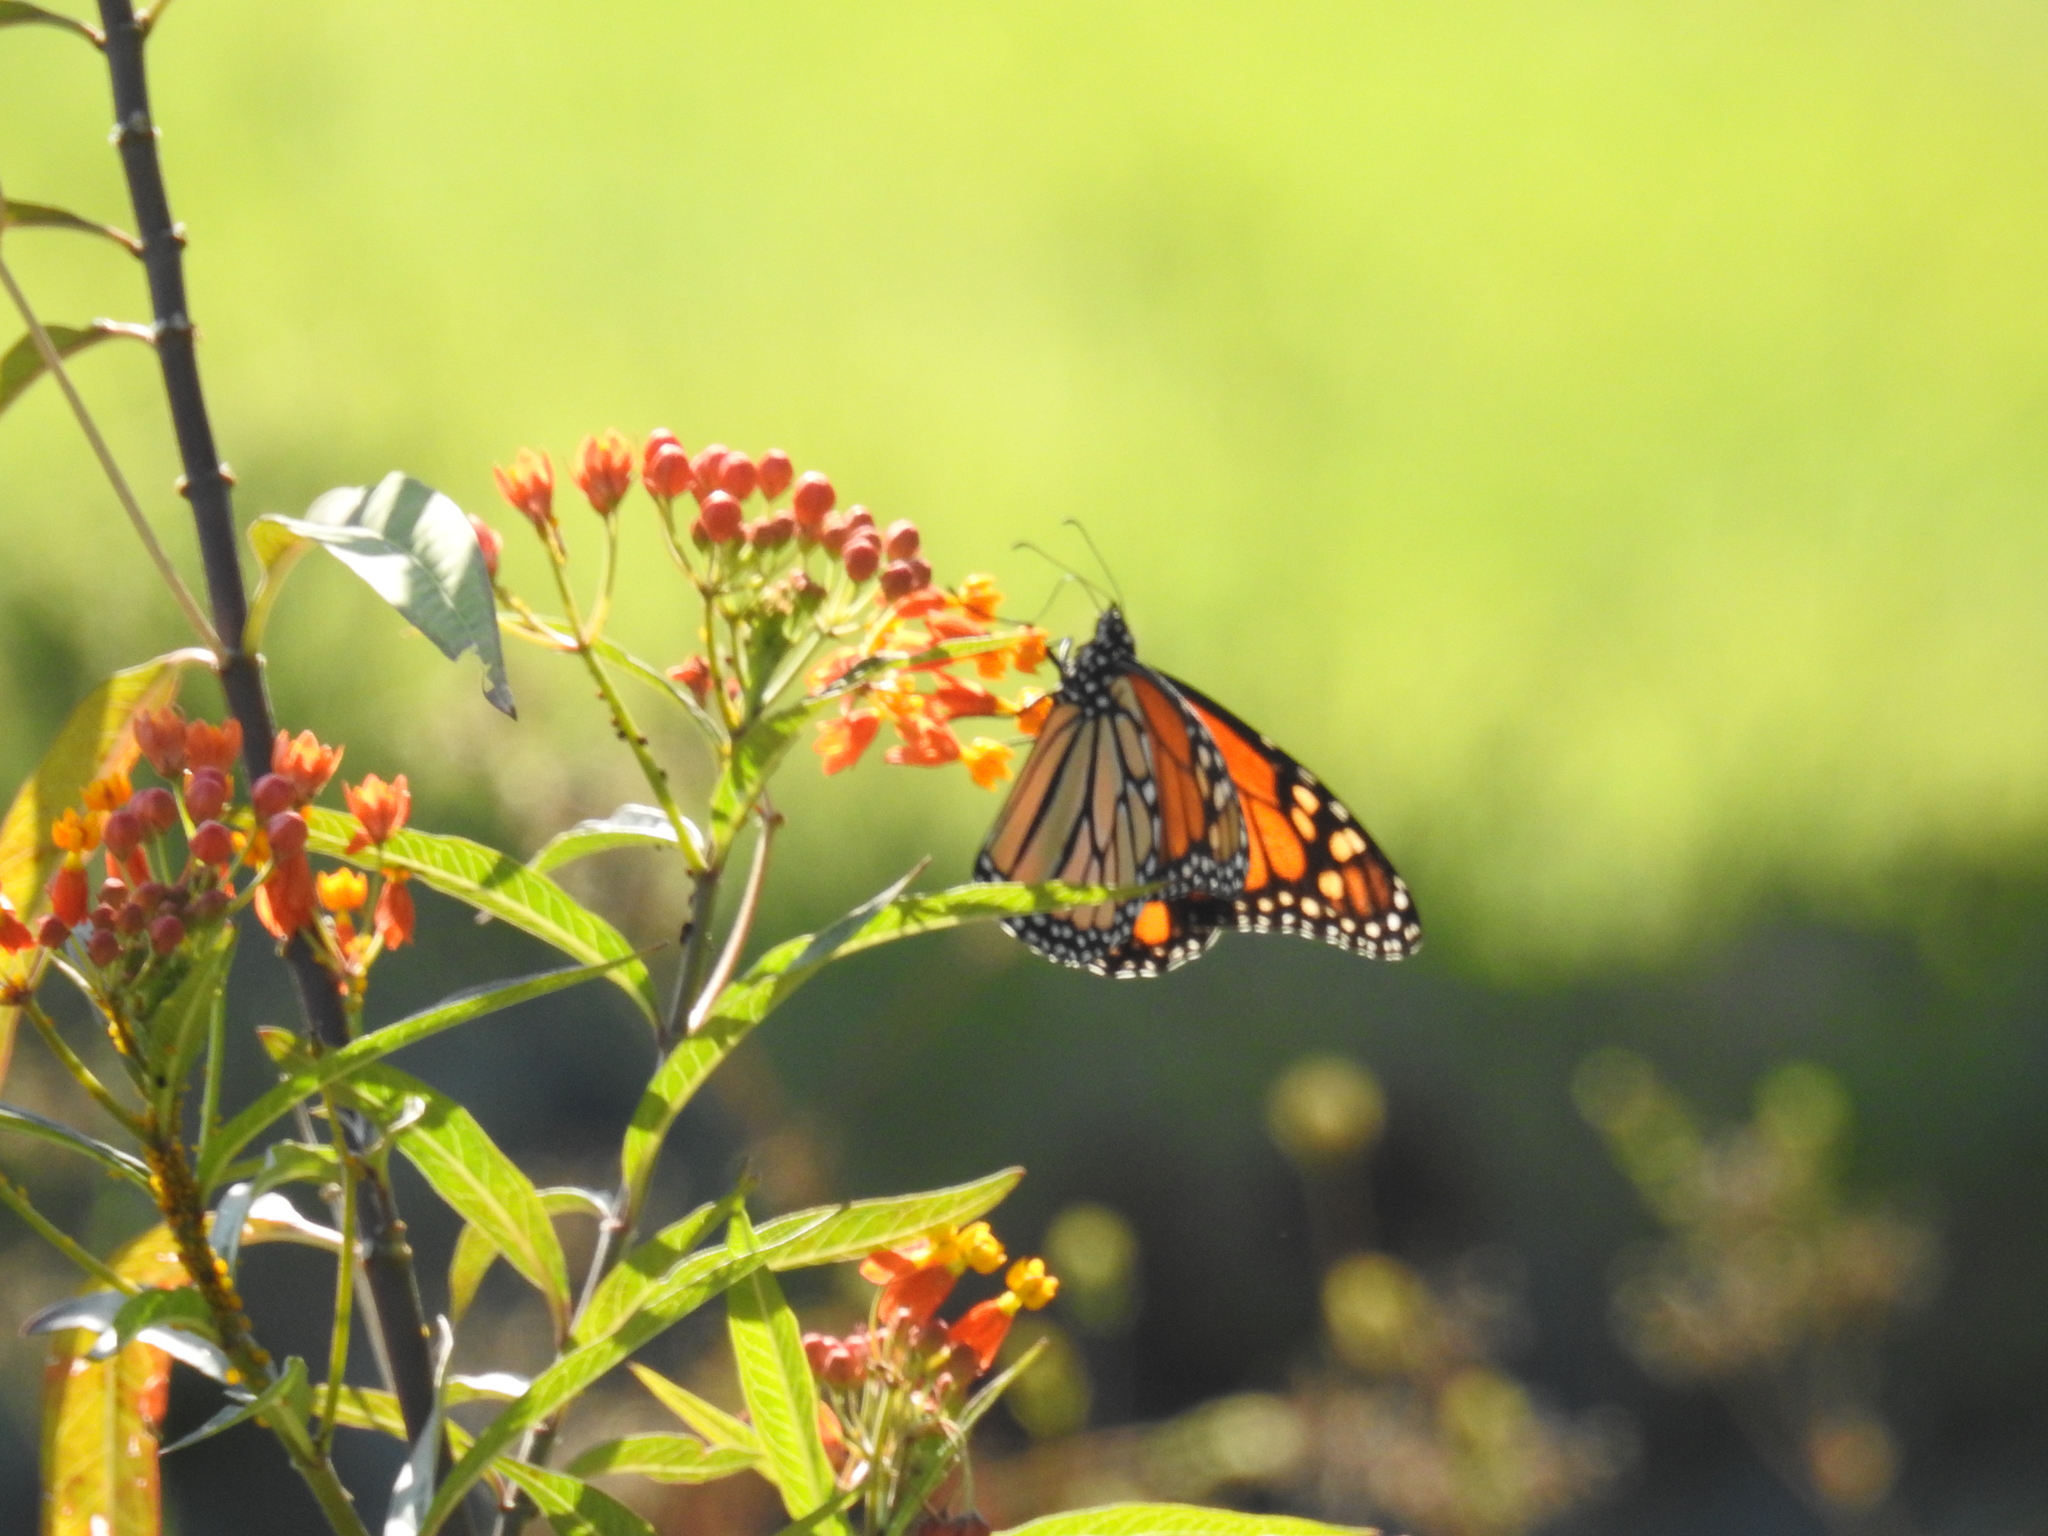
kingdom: Animalia
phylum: Arthropoda
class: Insecta
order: Lepidoptera
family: Nymphalidae
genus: Danaus
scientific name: Danaus plexippus
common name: Monarch
